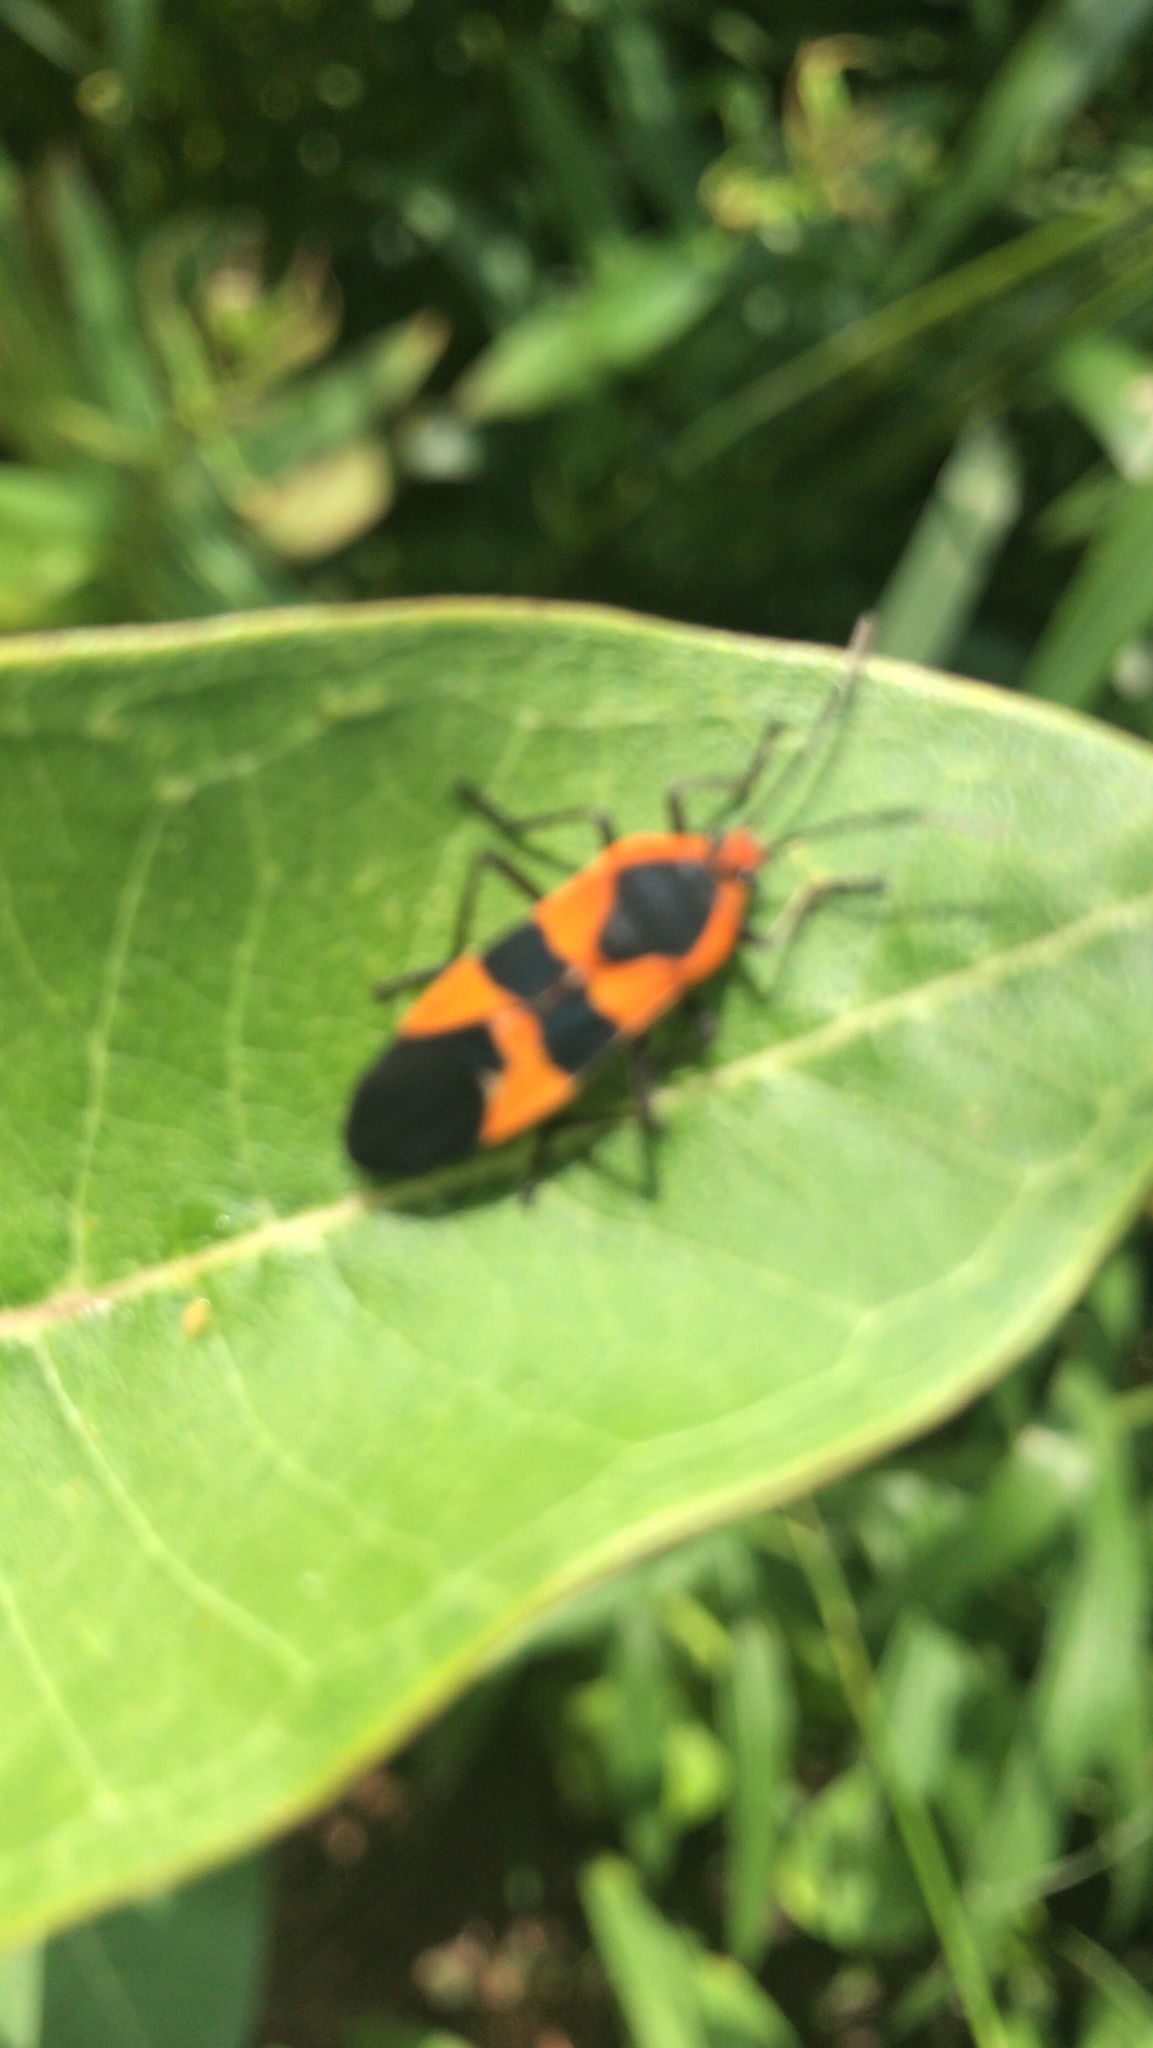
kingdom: Animalia
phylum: Arthropoda
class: Insecta
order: Hemiptera
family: Lygaeidae
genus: Oncopeltus
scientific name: Oncopeltus fasciatus
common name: Large milkweed bug
